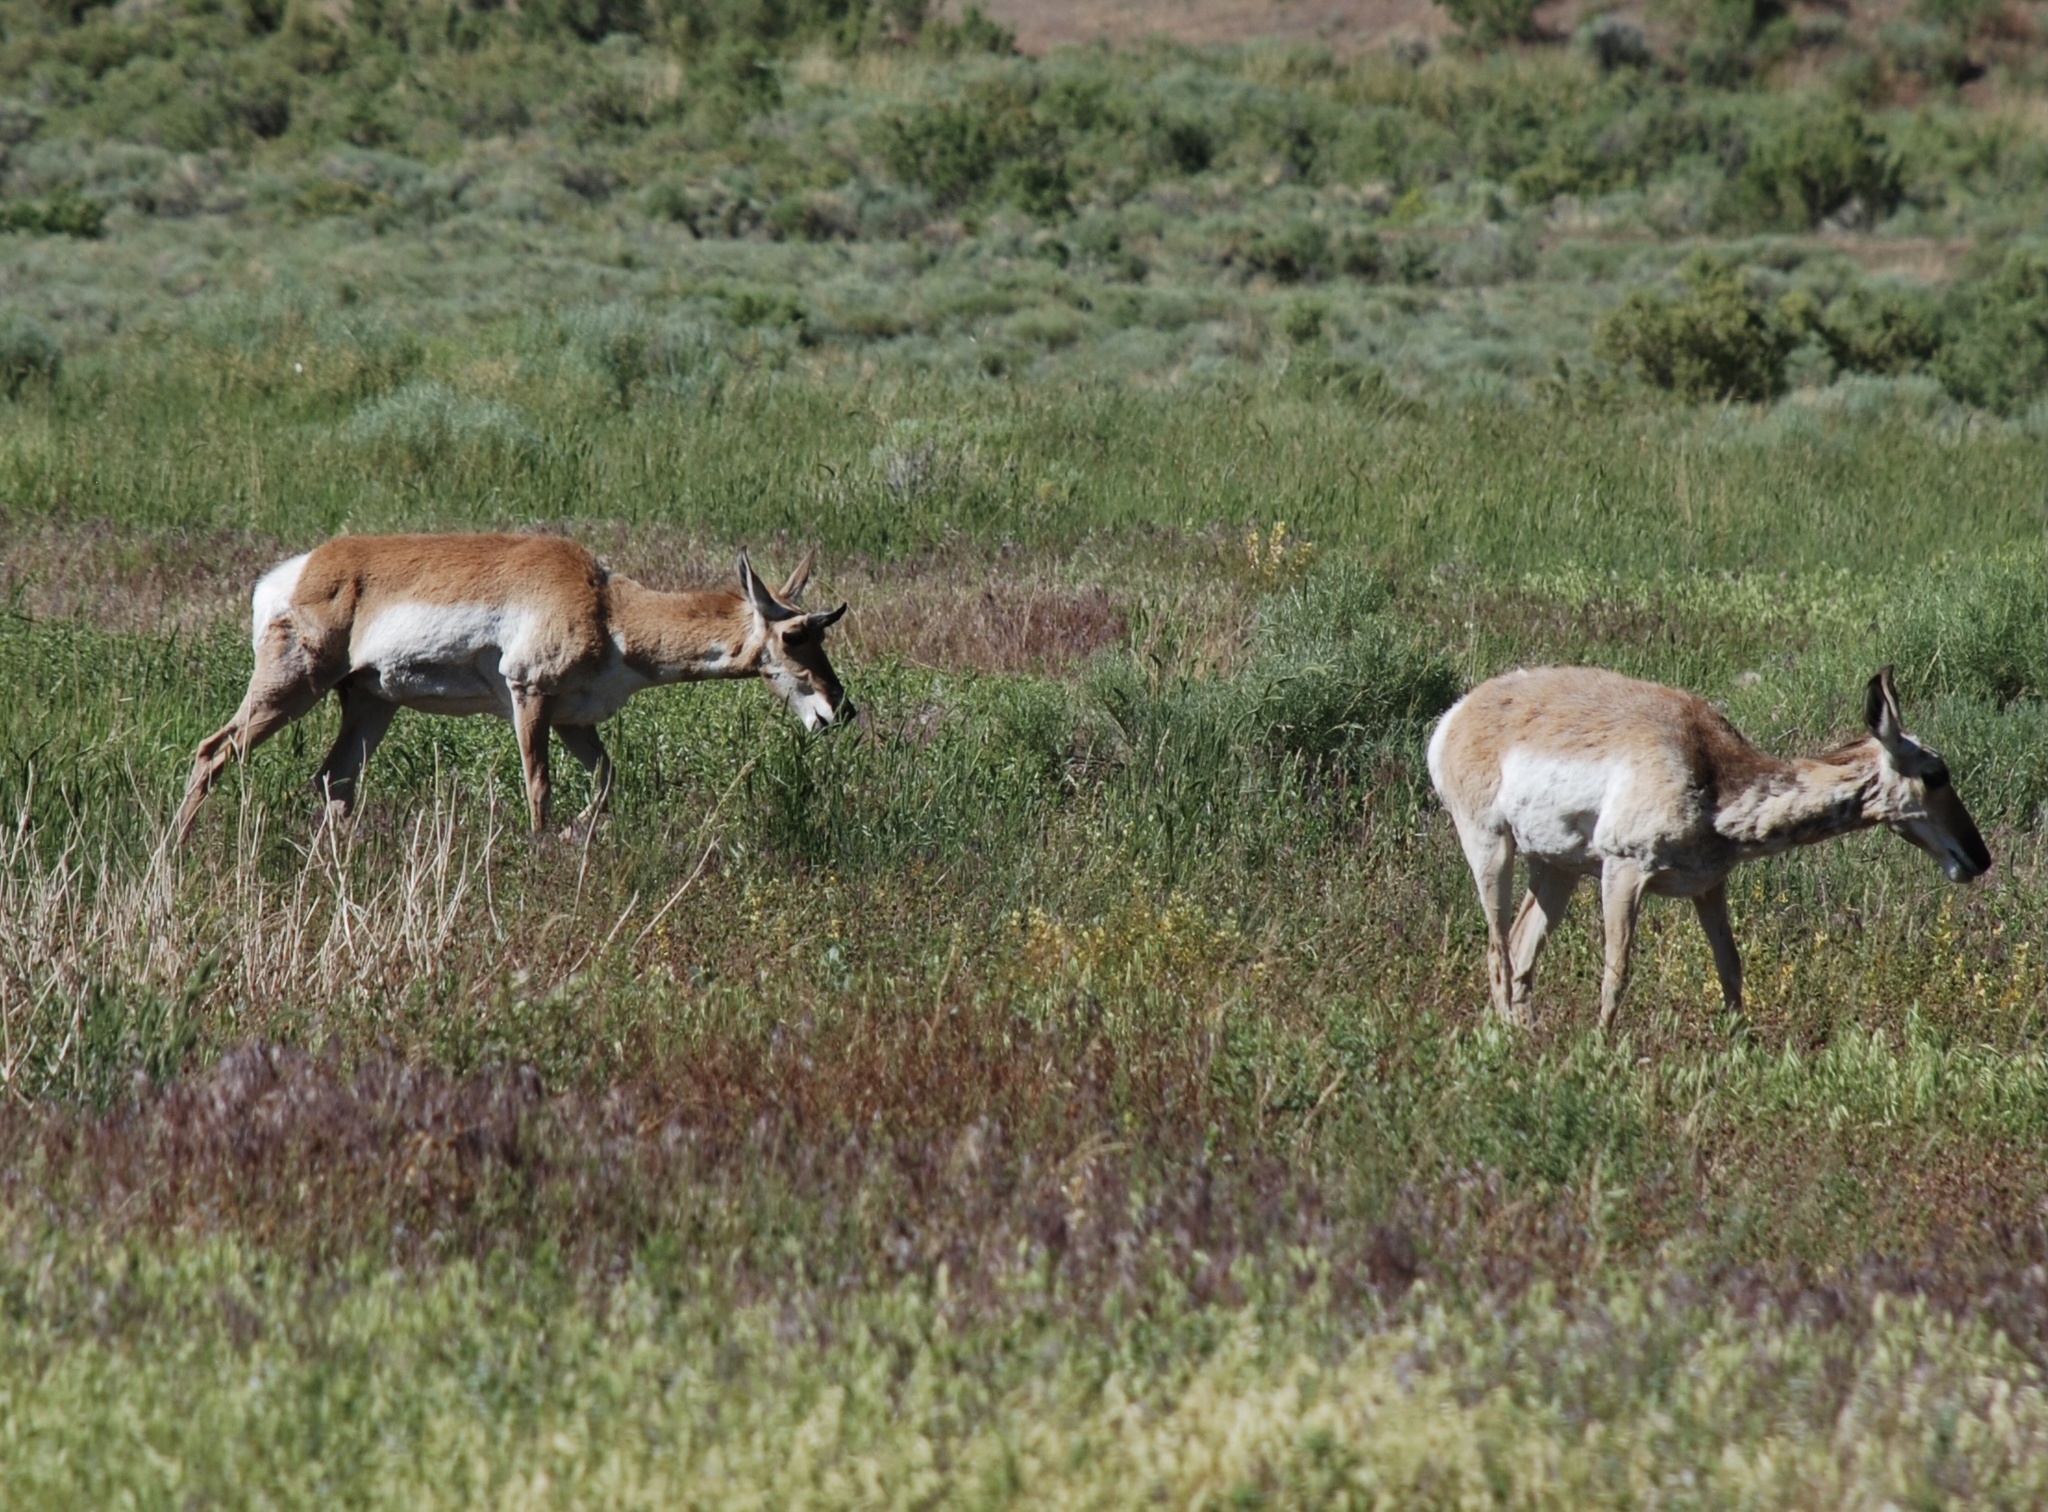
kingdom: Animalia
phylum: Chordata
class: Mammalia
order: Artiodactyla
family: Antilocapridae
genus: Antilocapra
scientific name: Antilocapra americana
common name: Pronghorn
